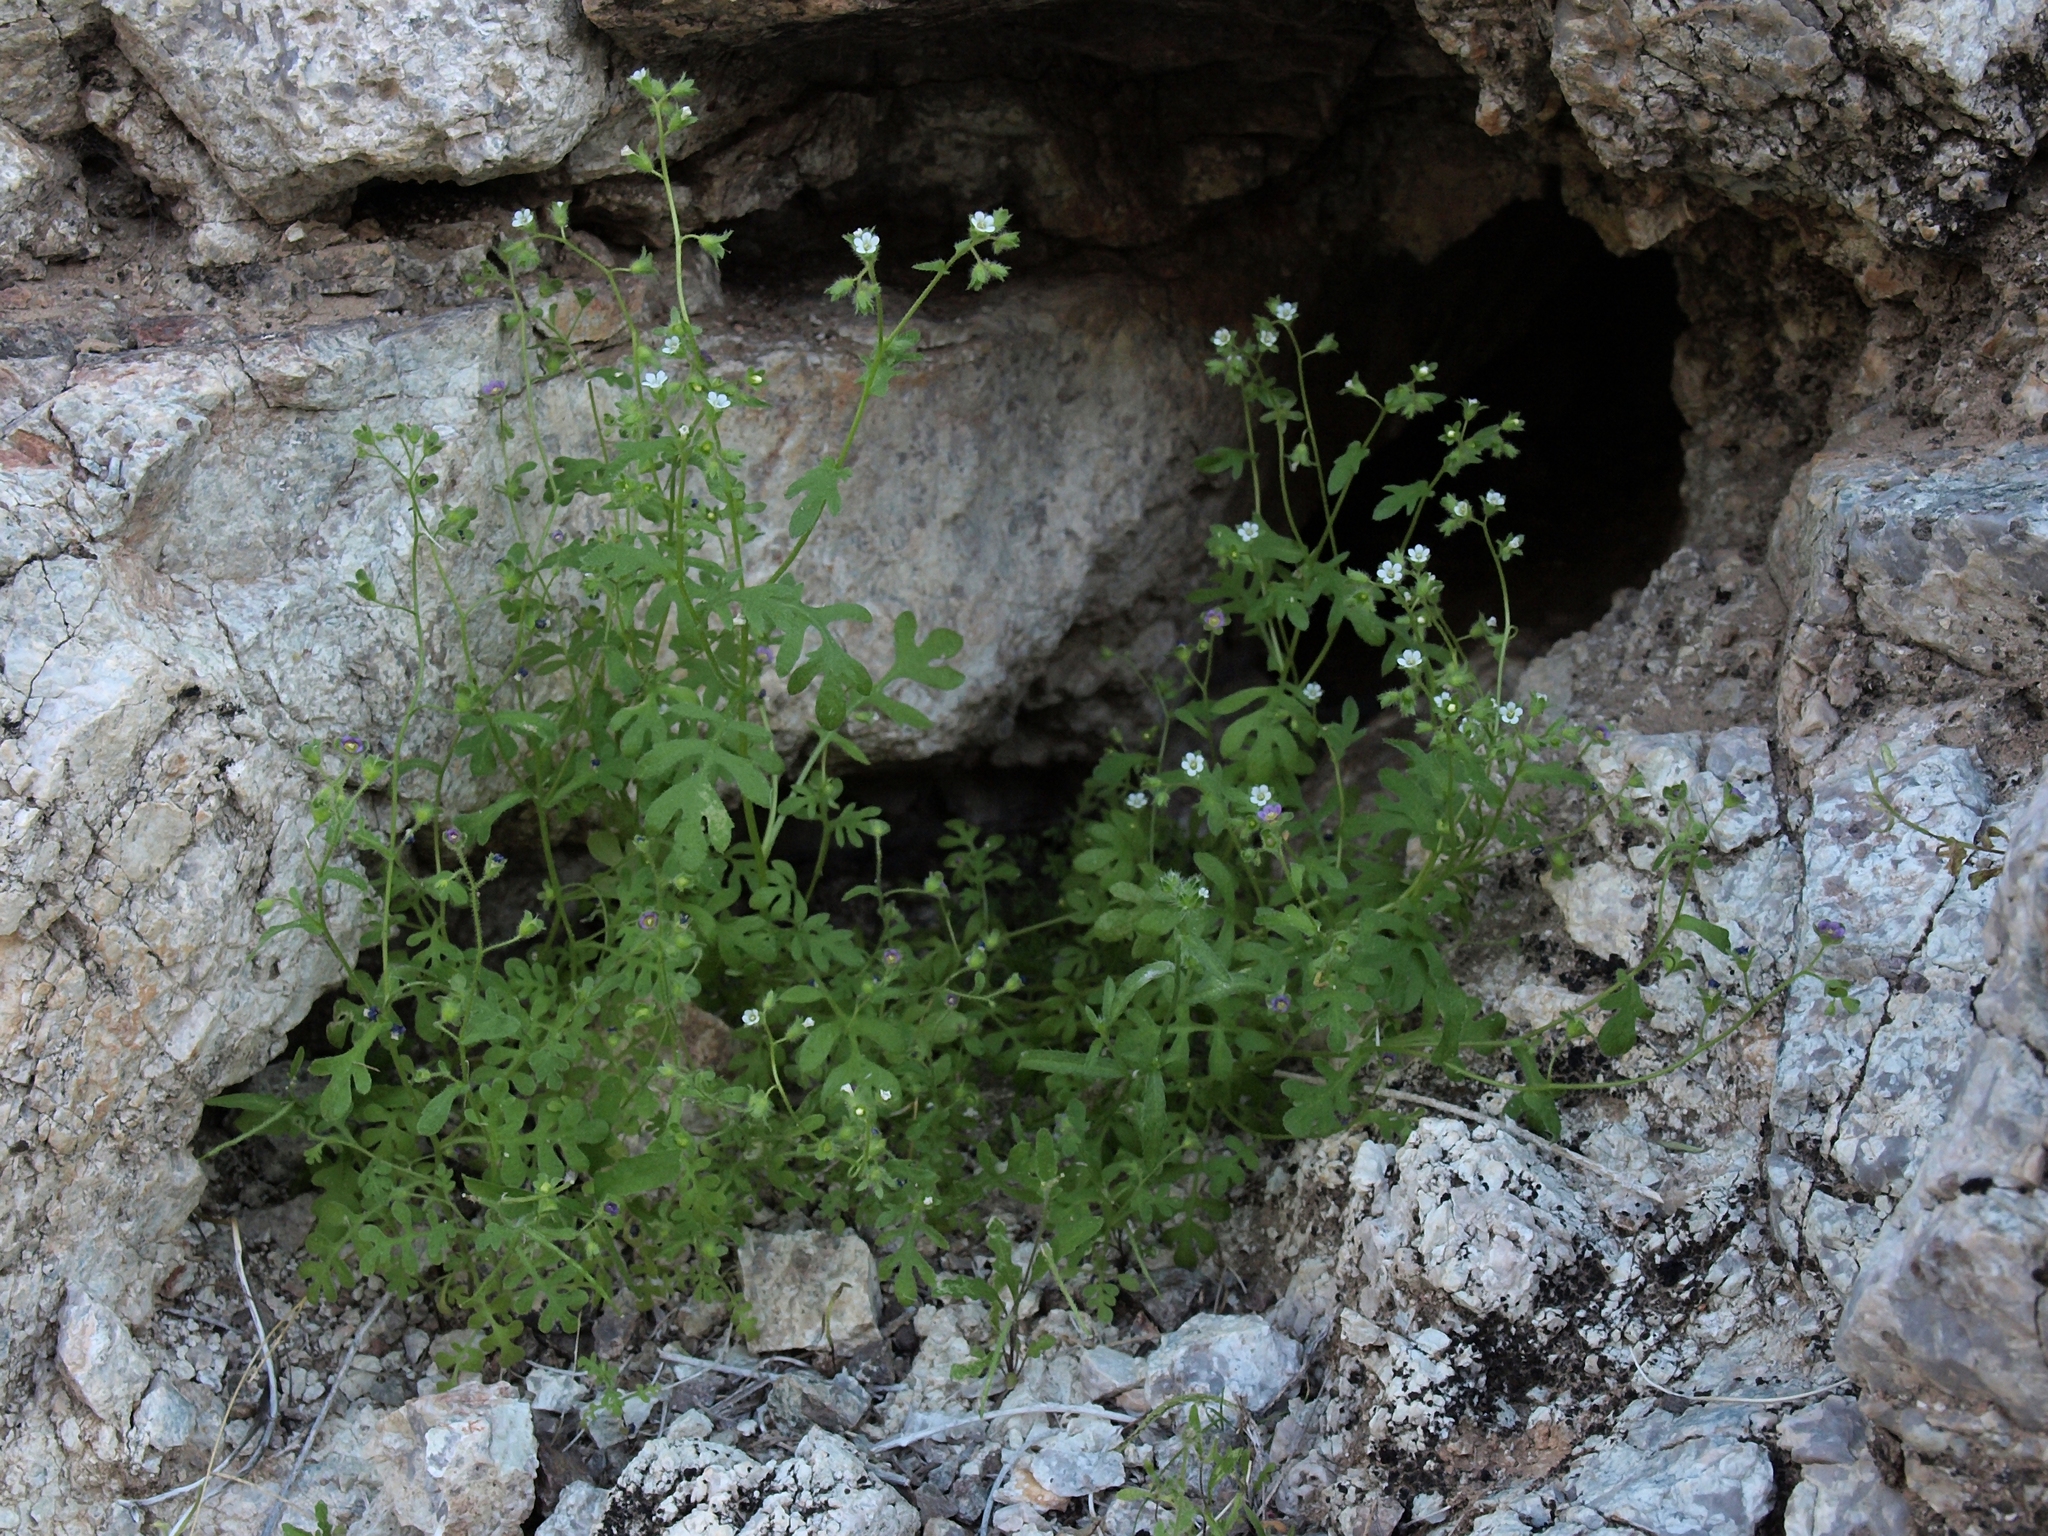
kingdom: Plantae
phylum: Tracheophyta
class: Magnoliopsida
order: Boraginales
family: Hydrophyllaceae
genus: Eucrypta
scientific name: Eucrypta micrantha
